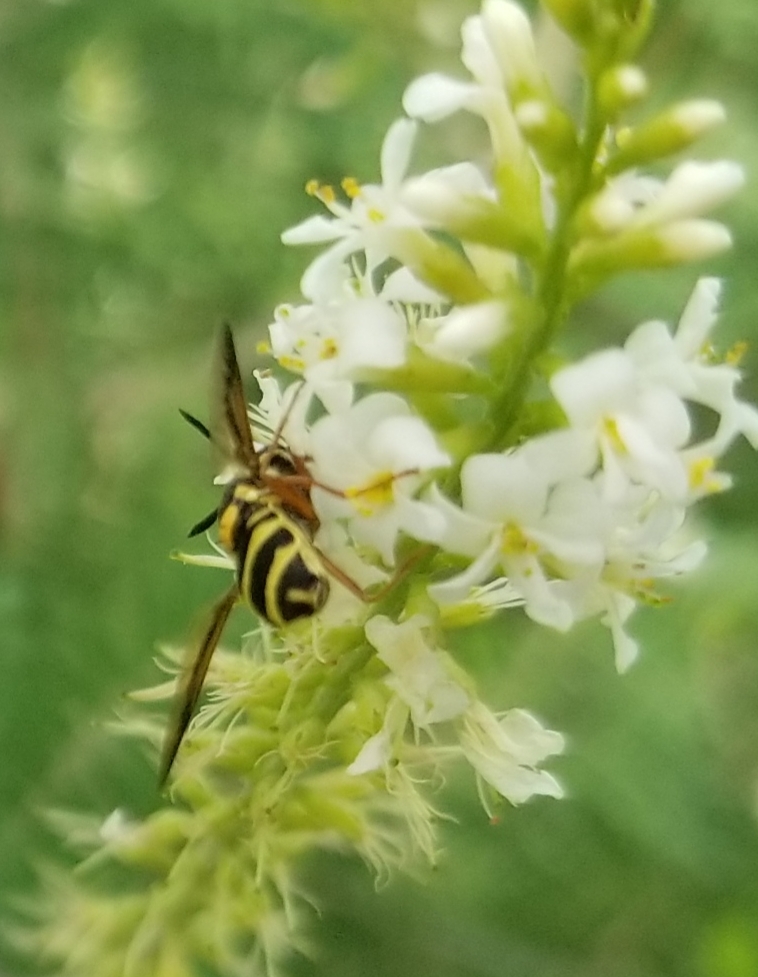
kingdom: Animalia
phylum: Arthropoda
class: Insecta
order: Diptera
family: Stratiomyidae
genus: Hoplitimyia
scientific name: Hoplitimyia constans
